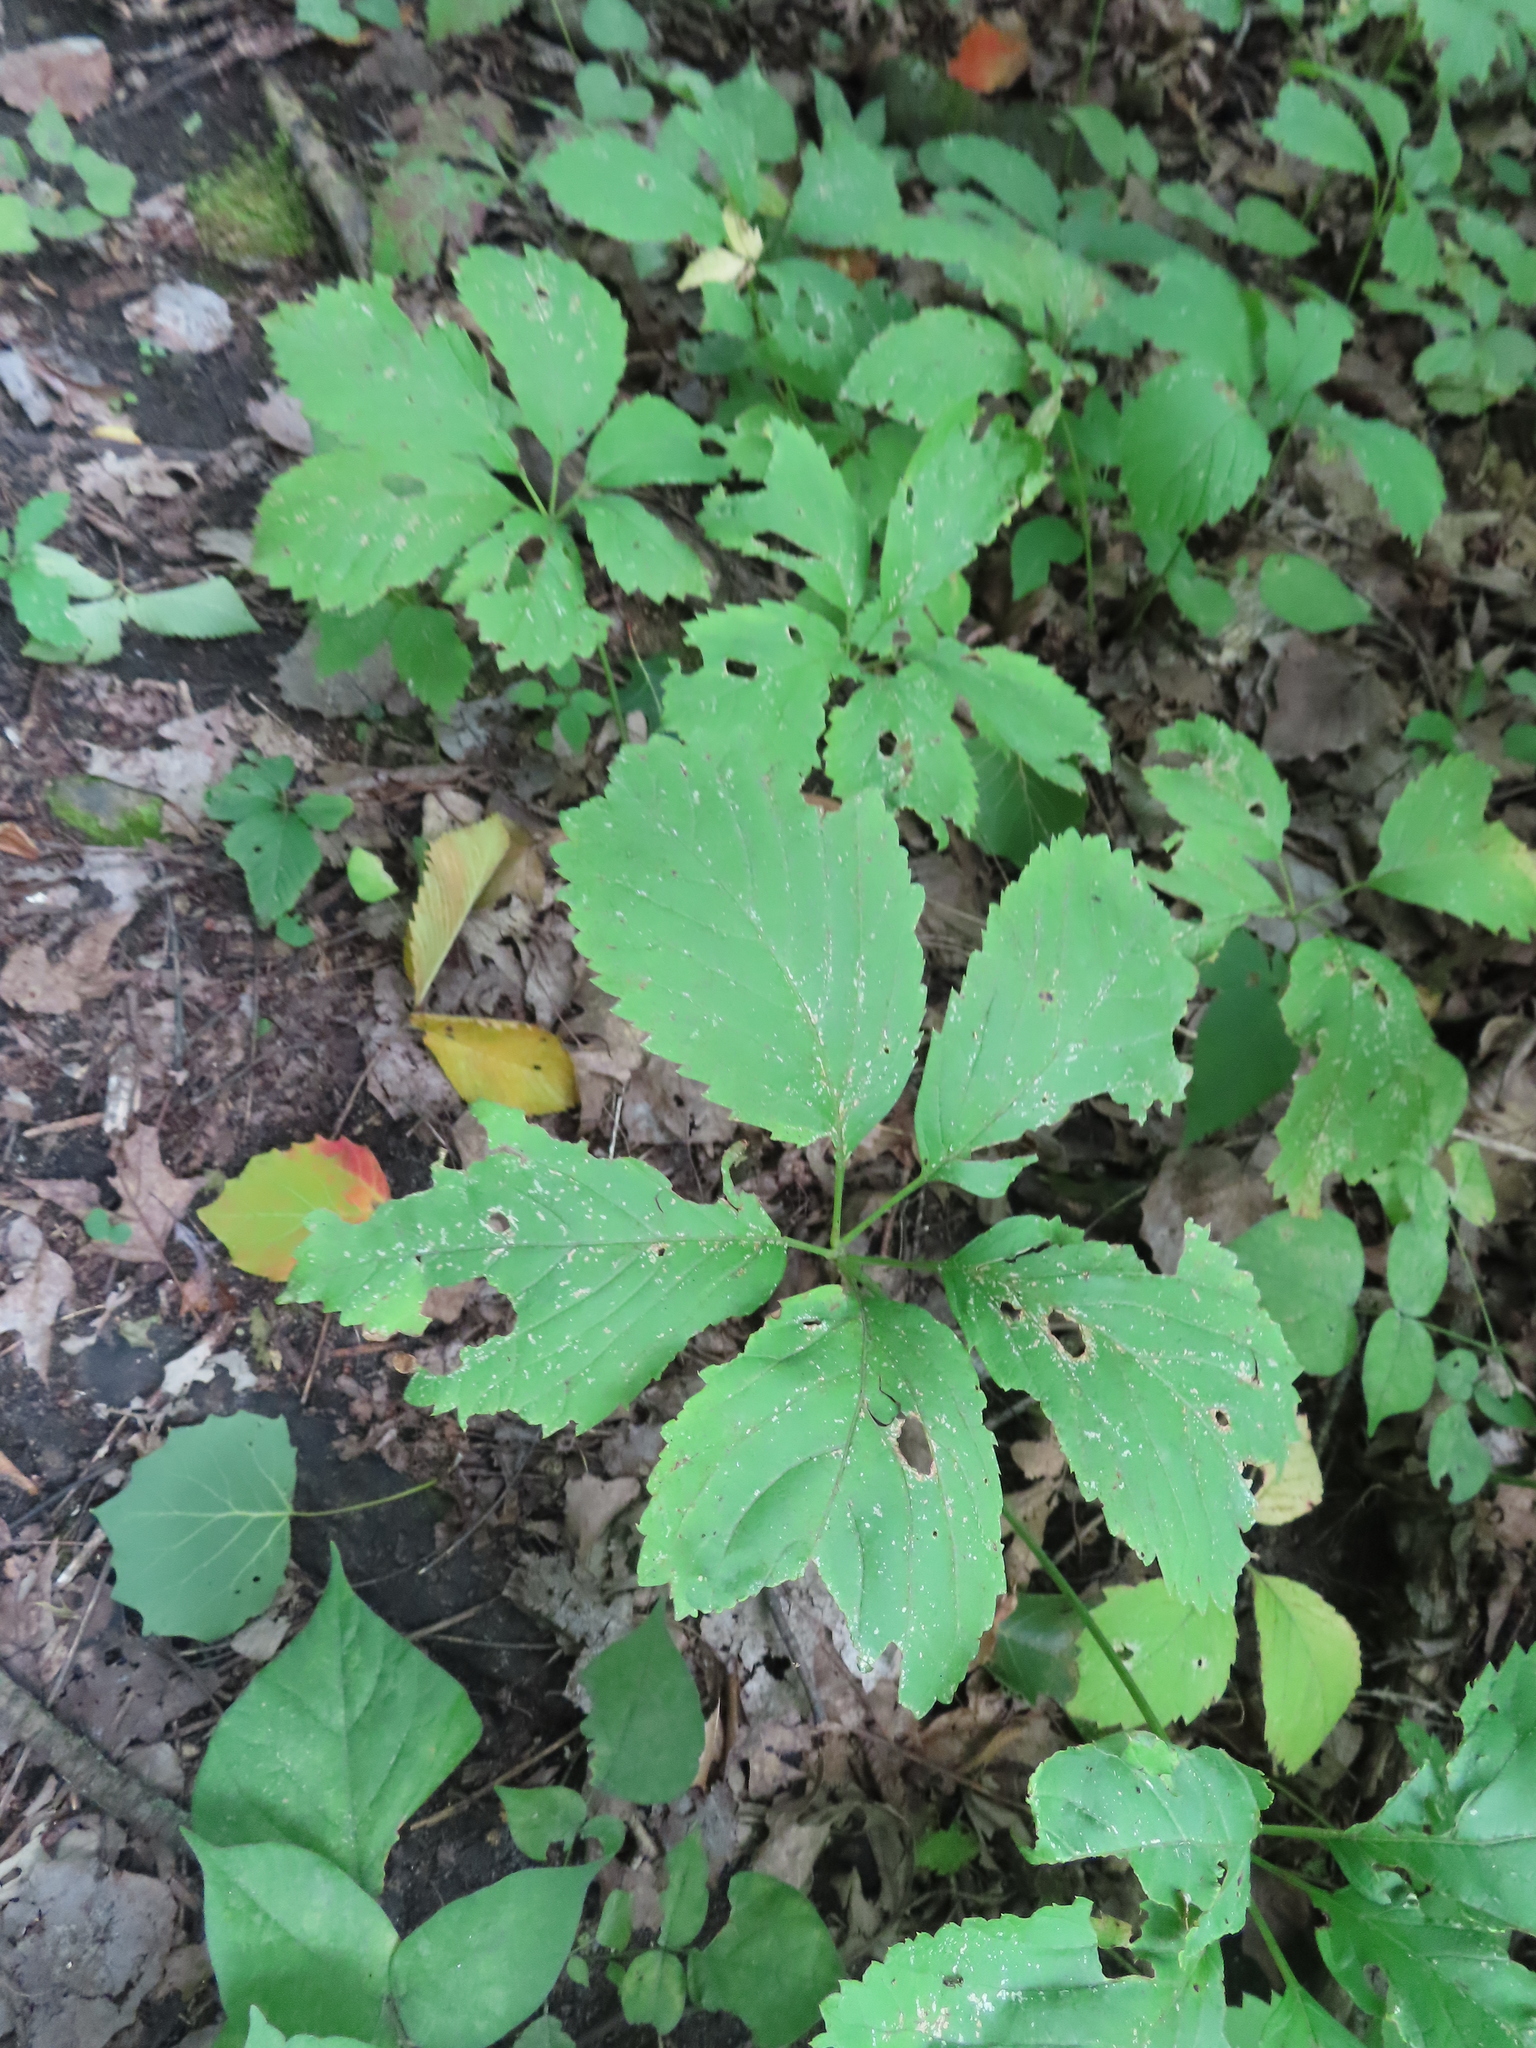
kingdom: Plantae
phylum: Tracheophyta
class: Magnoliopsida
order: Vitales
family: Vitaceae
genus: Parthenocissus
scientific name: Parthenocissus inserta
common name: False virginia-creeper
